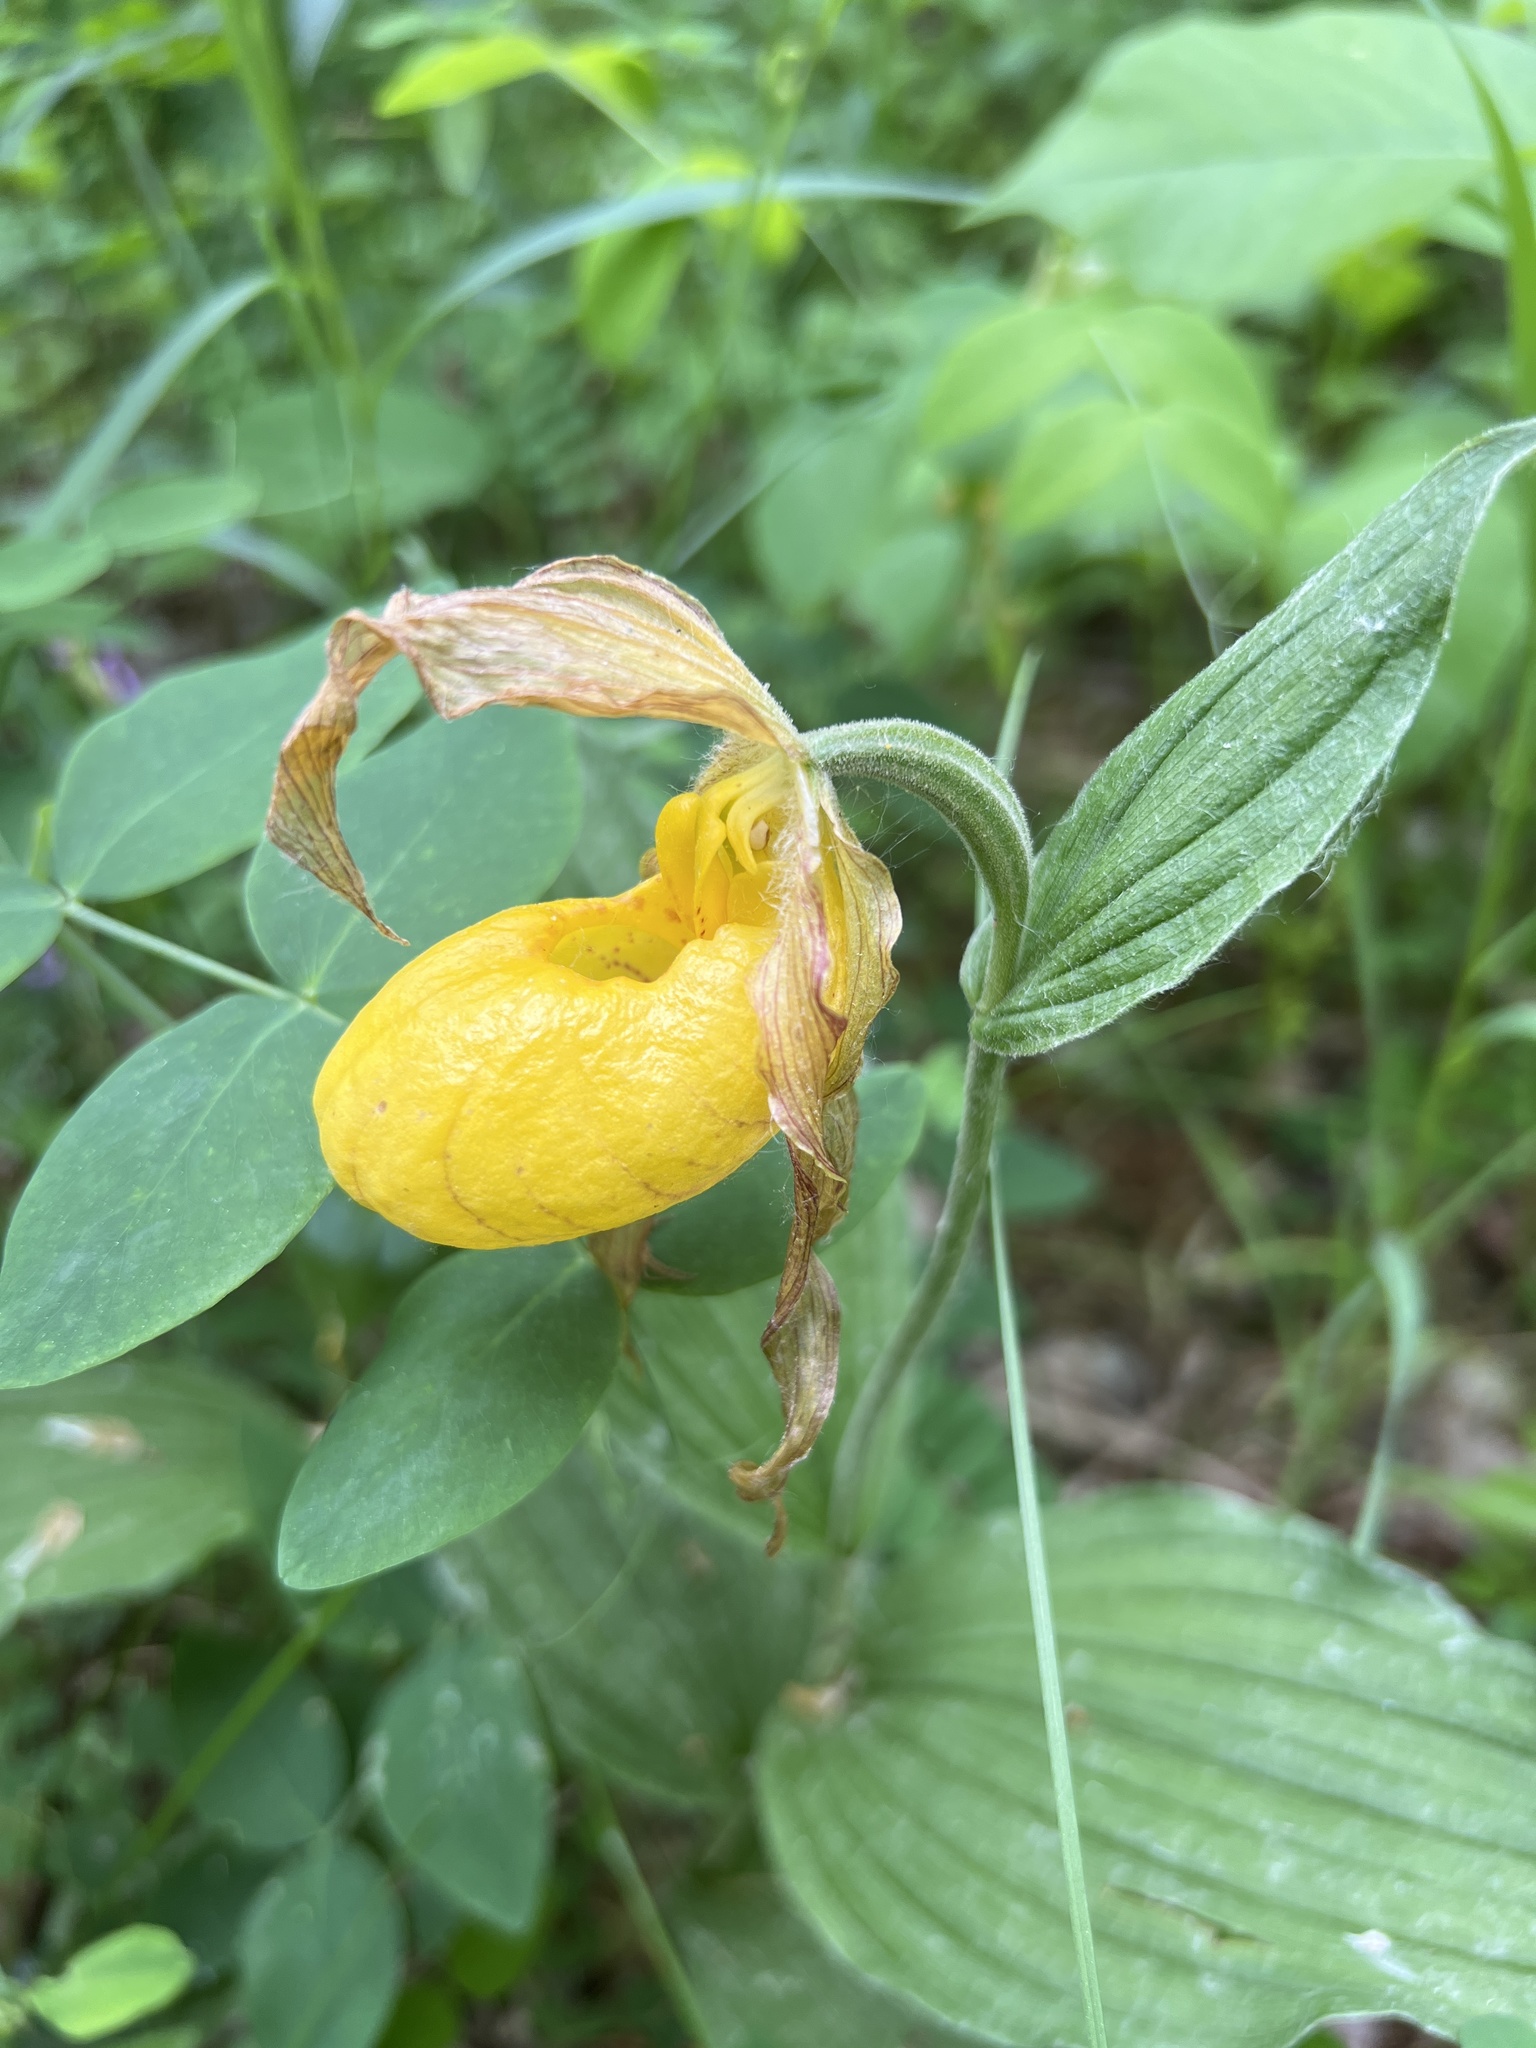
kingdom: Plantae
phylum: Tracheophyta
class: Liliopsida
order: Asparagales
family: Orchidaceae
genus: Cypripedium
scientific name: Cypripedium parviflorum
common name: American yellow lady's-slipper
